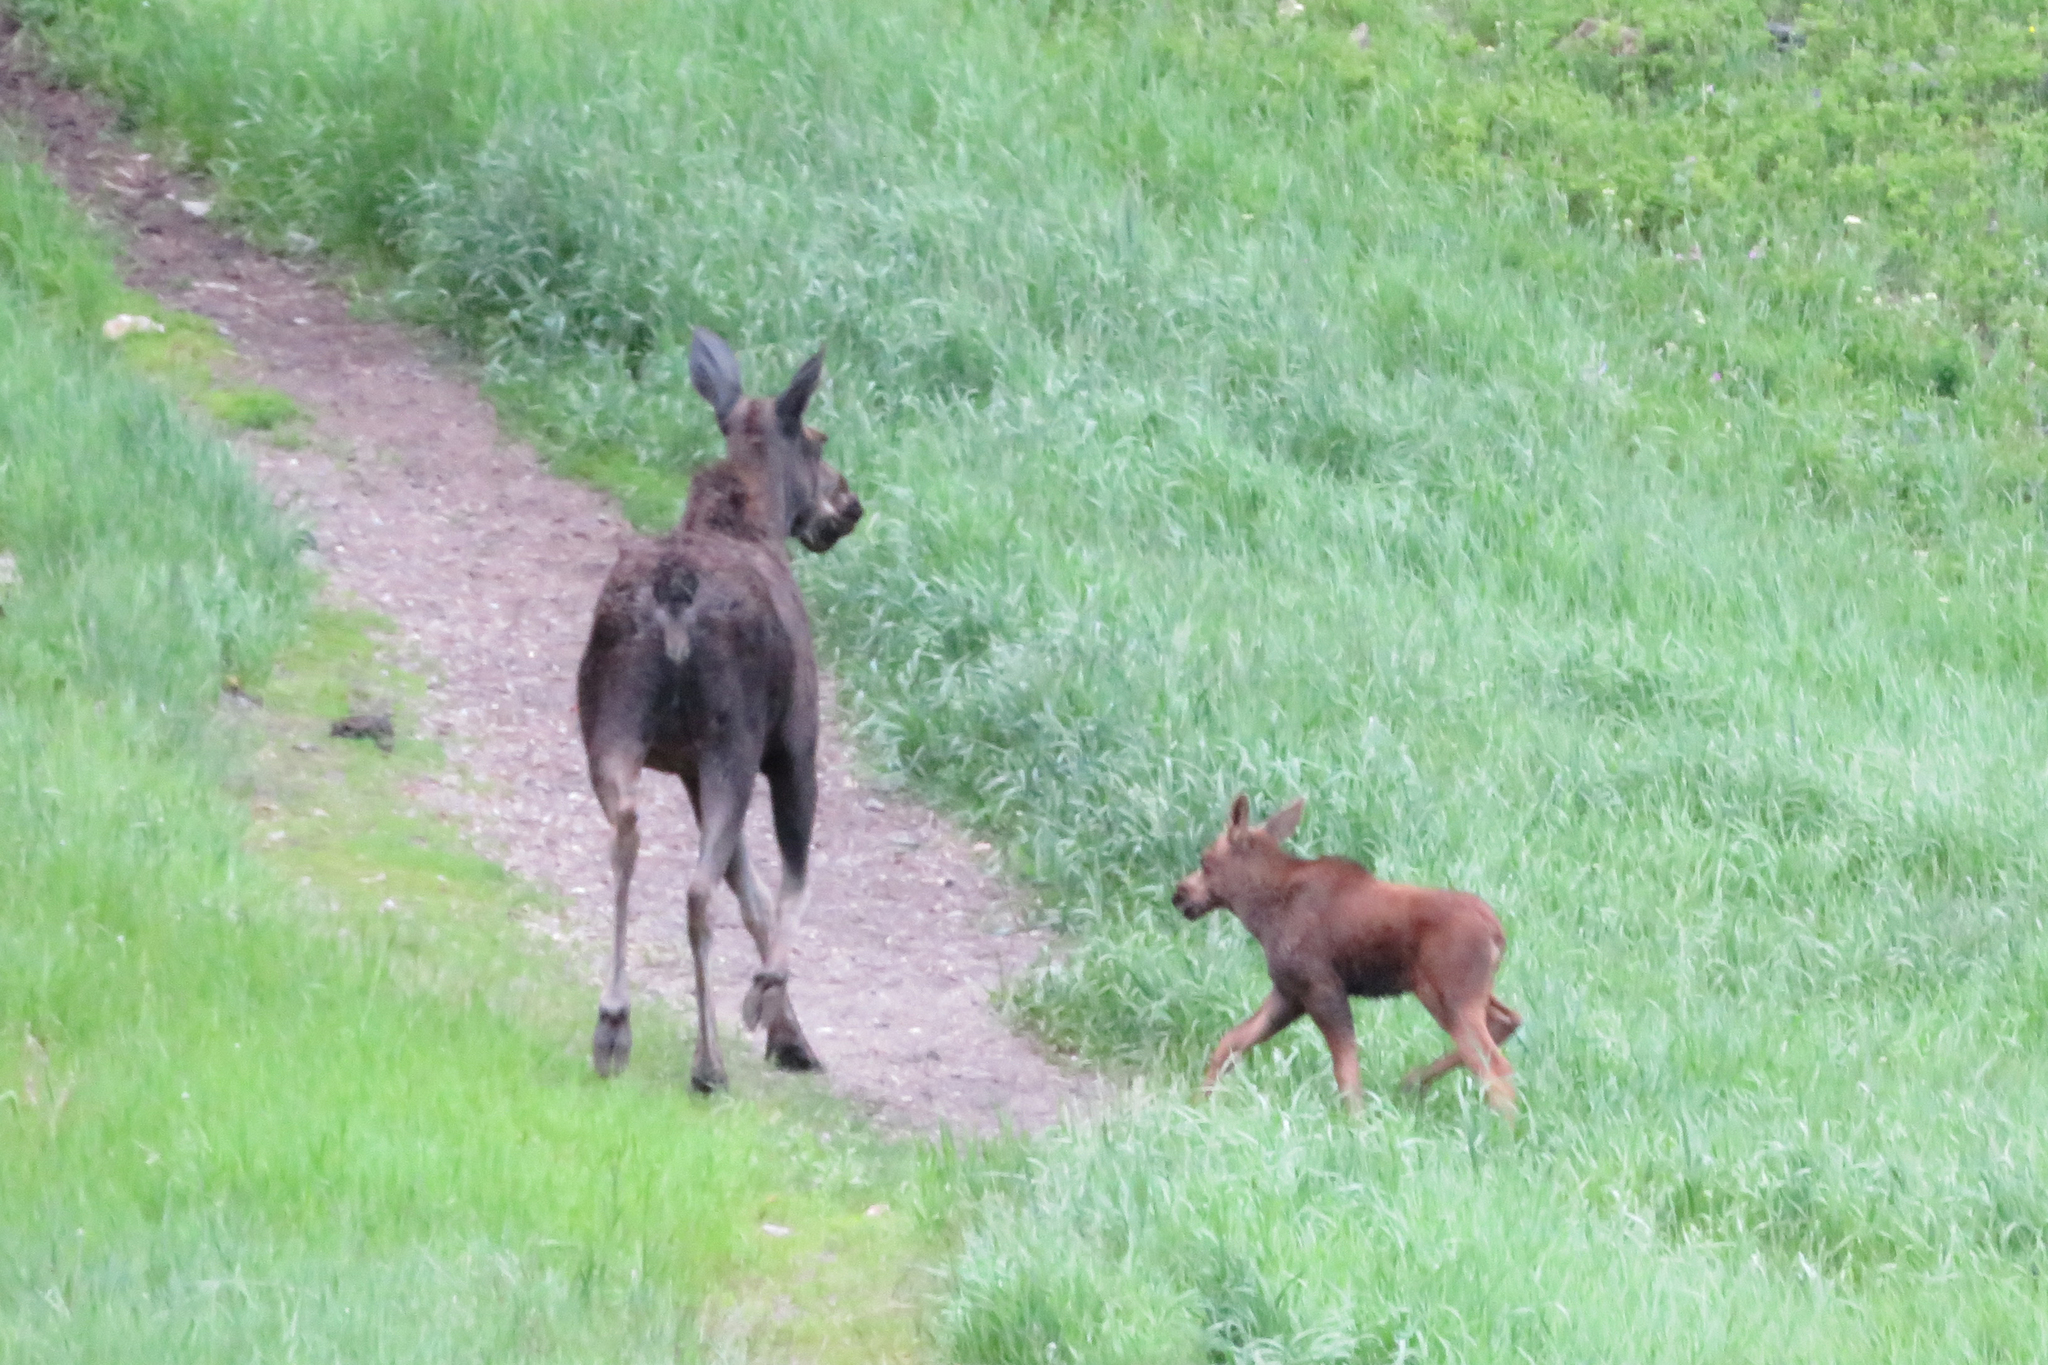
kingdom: Animalia
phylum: Chordata
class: Mammalia
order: Artiodactyla
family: Cervidae
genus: Alces
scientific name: Alces alces
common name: Moose
